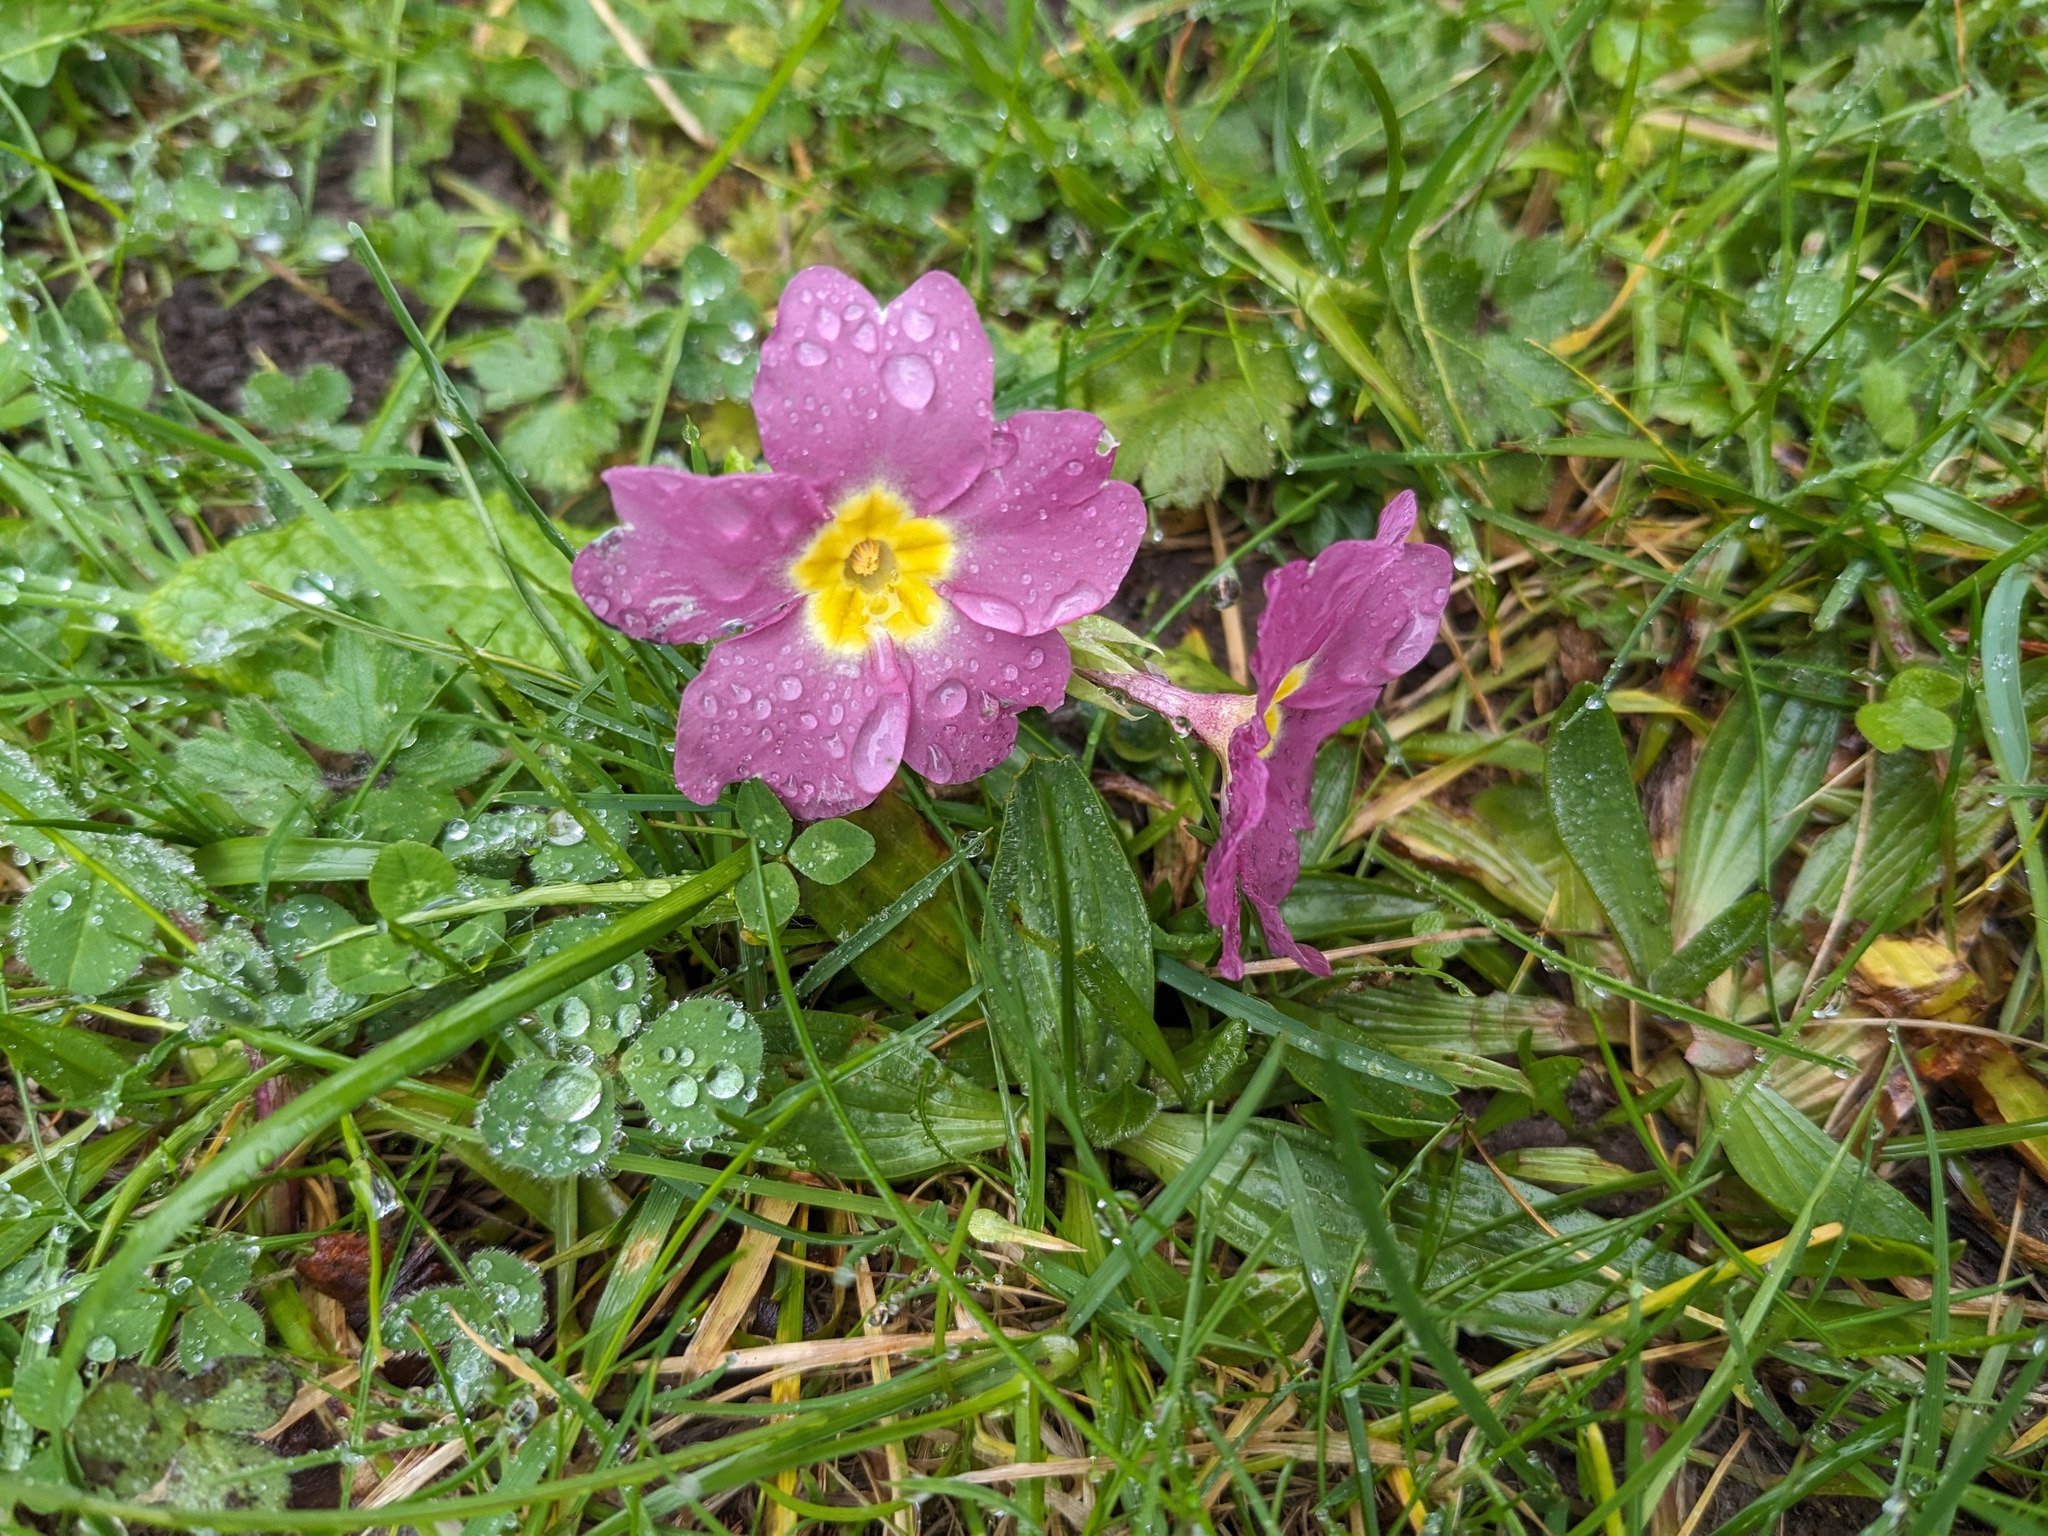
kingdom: Plantae
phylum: Tracheophyta
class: Magnoliopsida
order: Ericales
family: Primulaceae
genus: Primula
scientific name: Primula vulgaris
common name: Primrose
